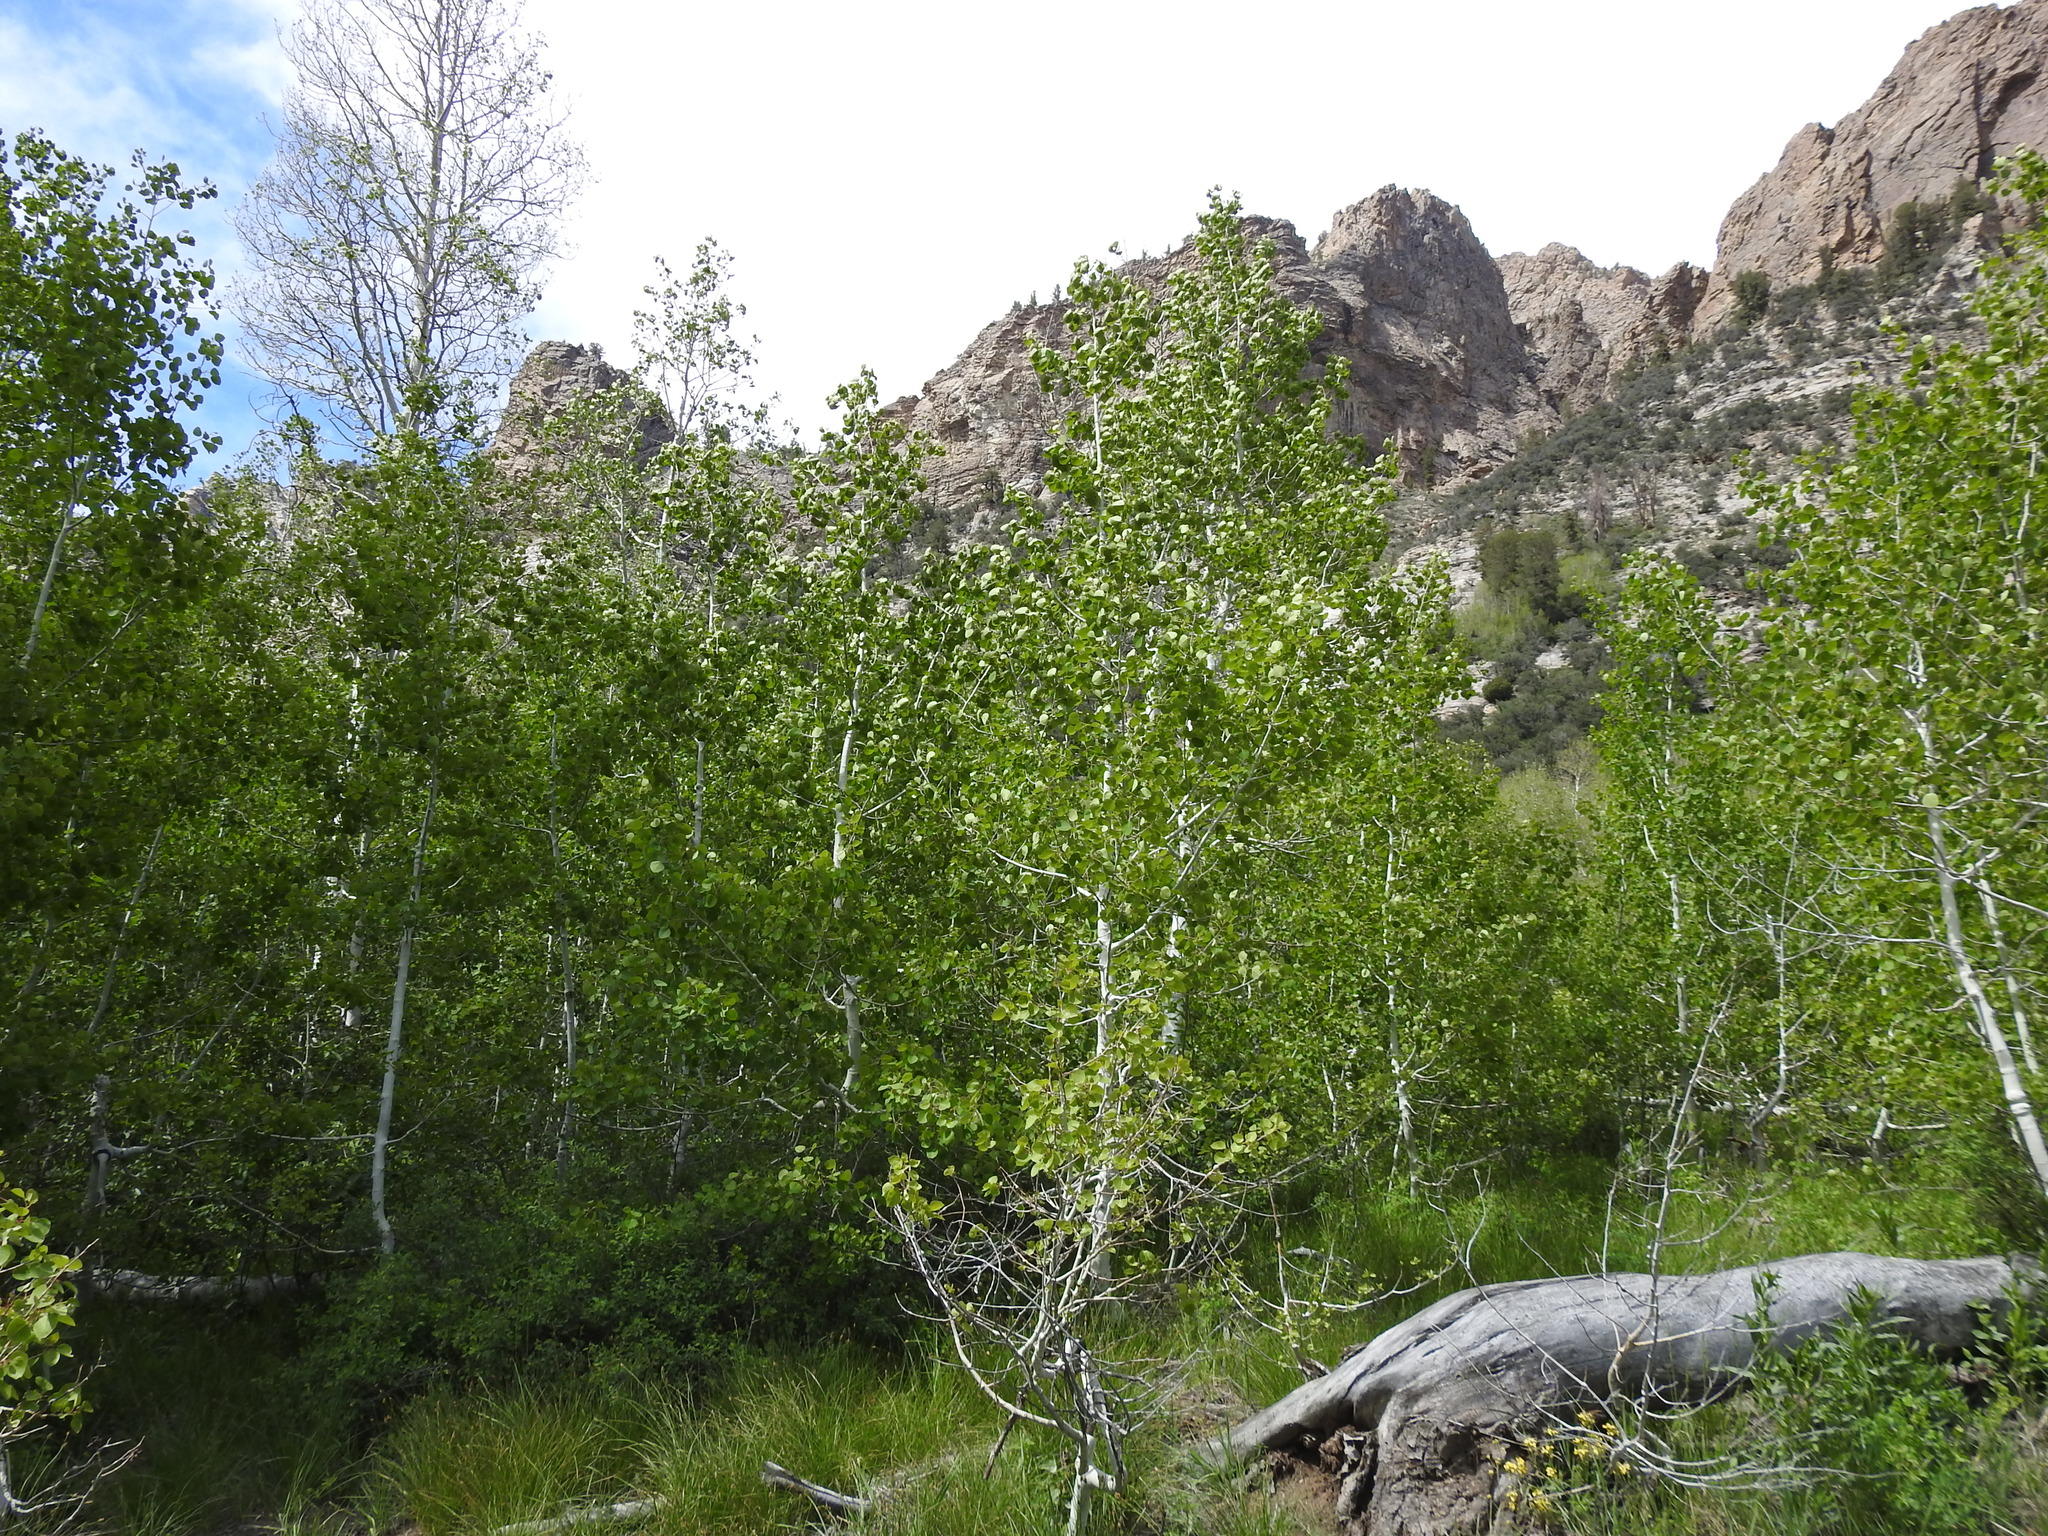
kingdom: Plantae
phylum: Tracheophyta
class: Magnoliopsida
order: Malpighiales
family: Salicaceae
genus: Populus
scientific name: Populus tremuloides
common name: Quaking aspen
